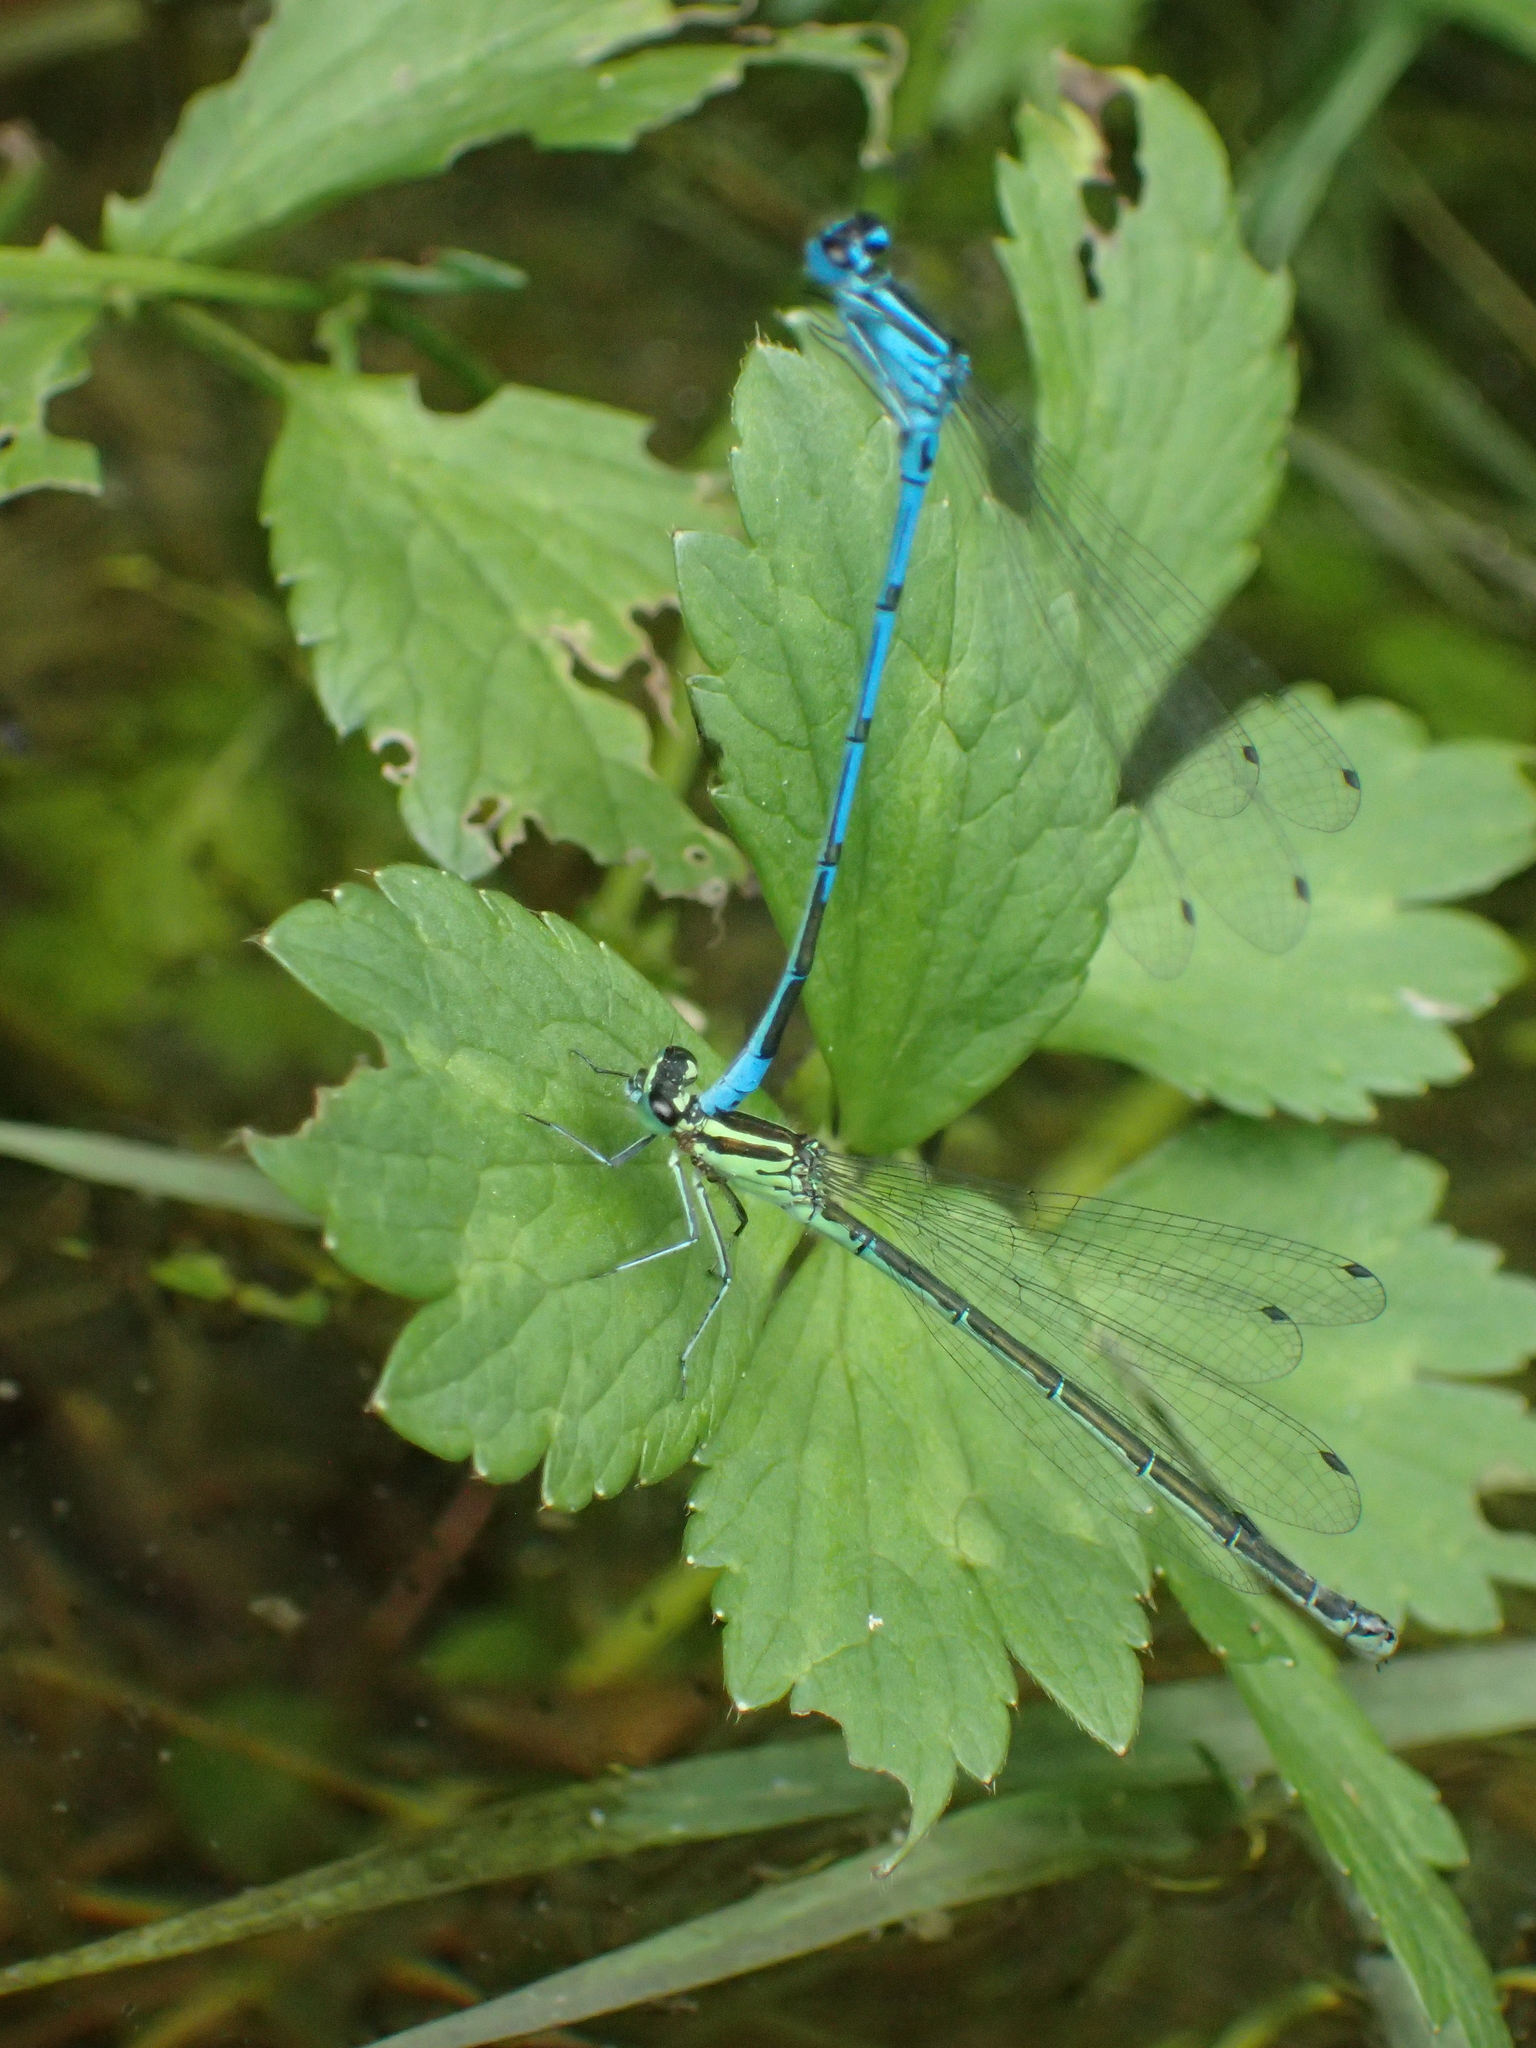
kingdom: Animalia
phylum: Arthropoda
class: Insecta
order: Odonata
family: Coenagrionidae
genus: Coenagrion
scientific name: Coenagrion puella
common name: Azure damselfly
